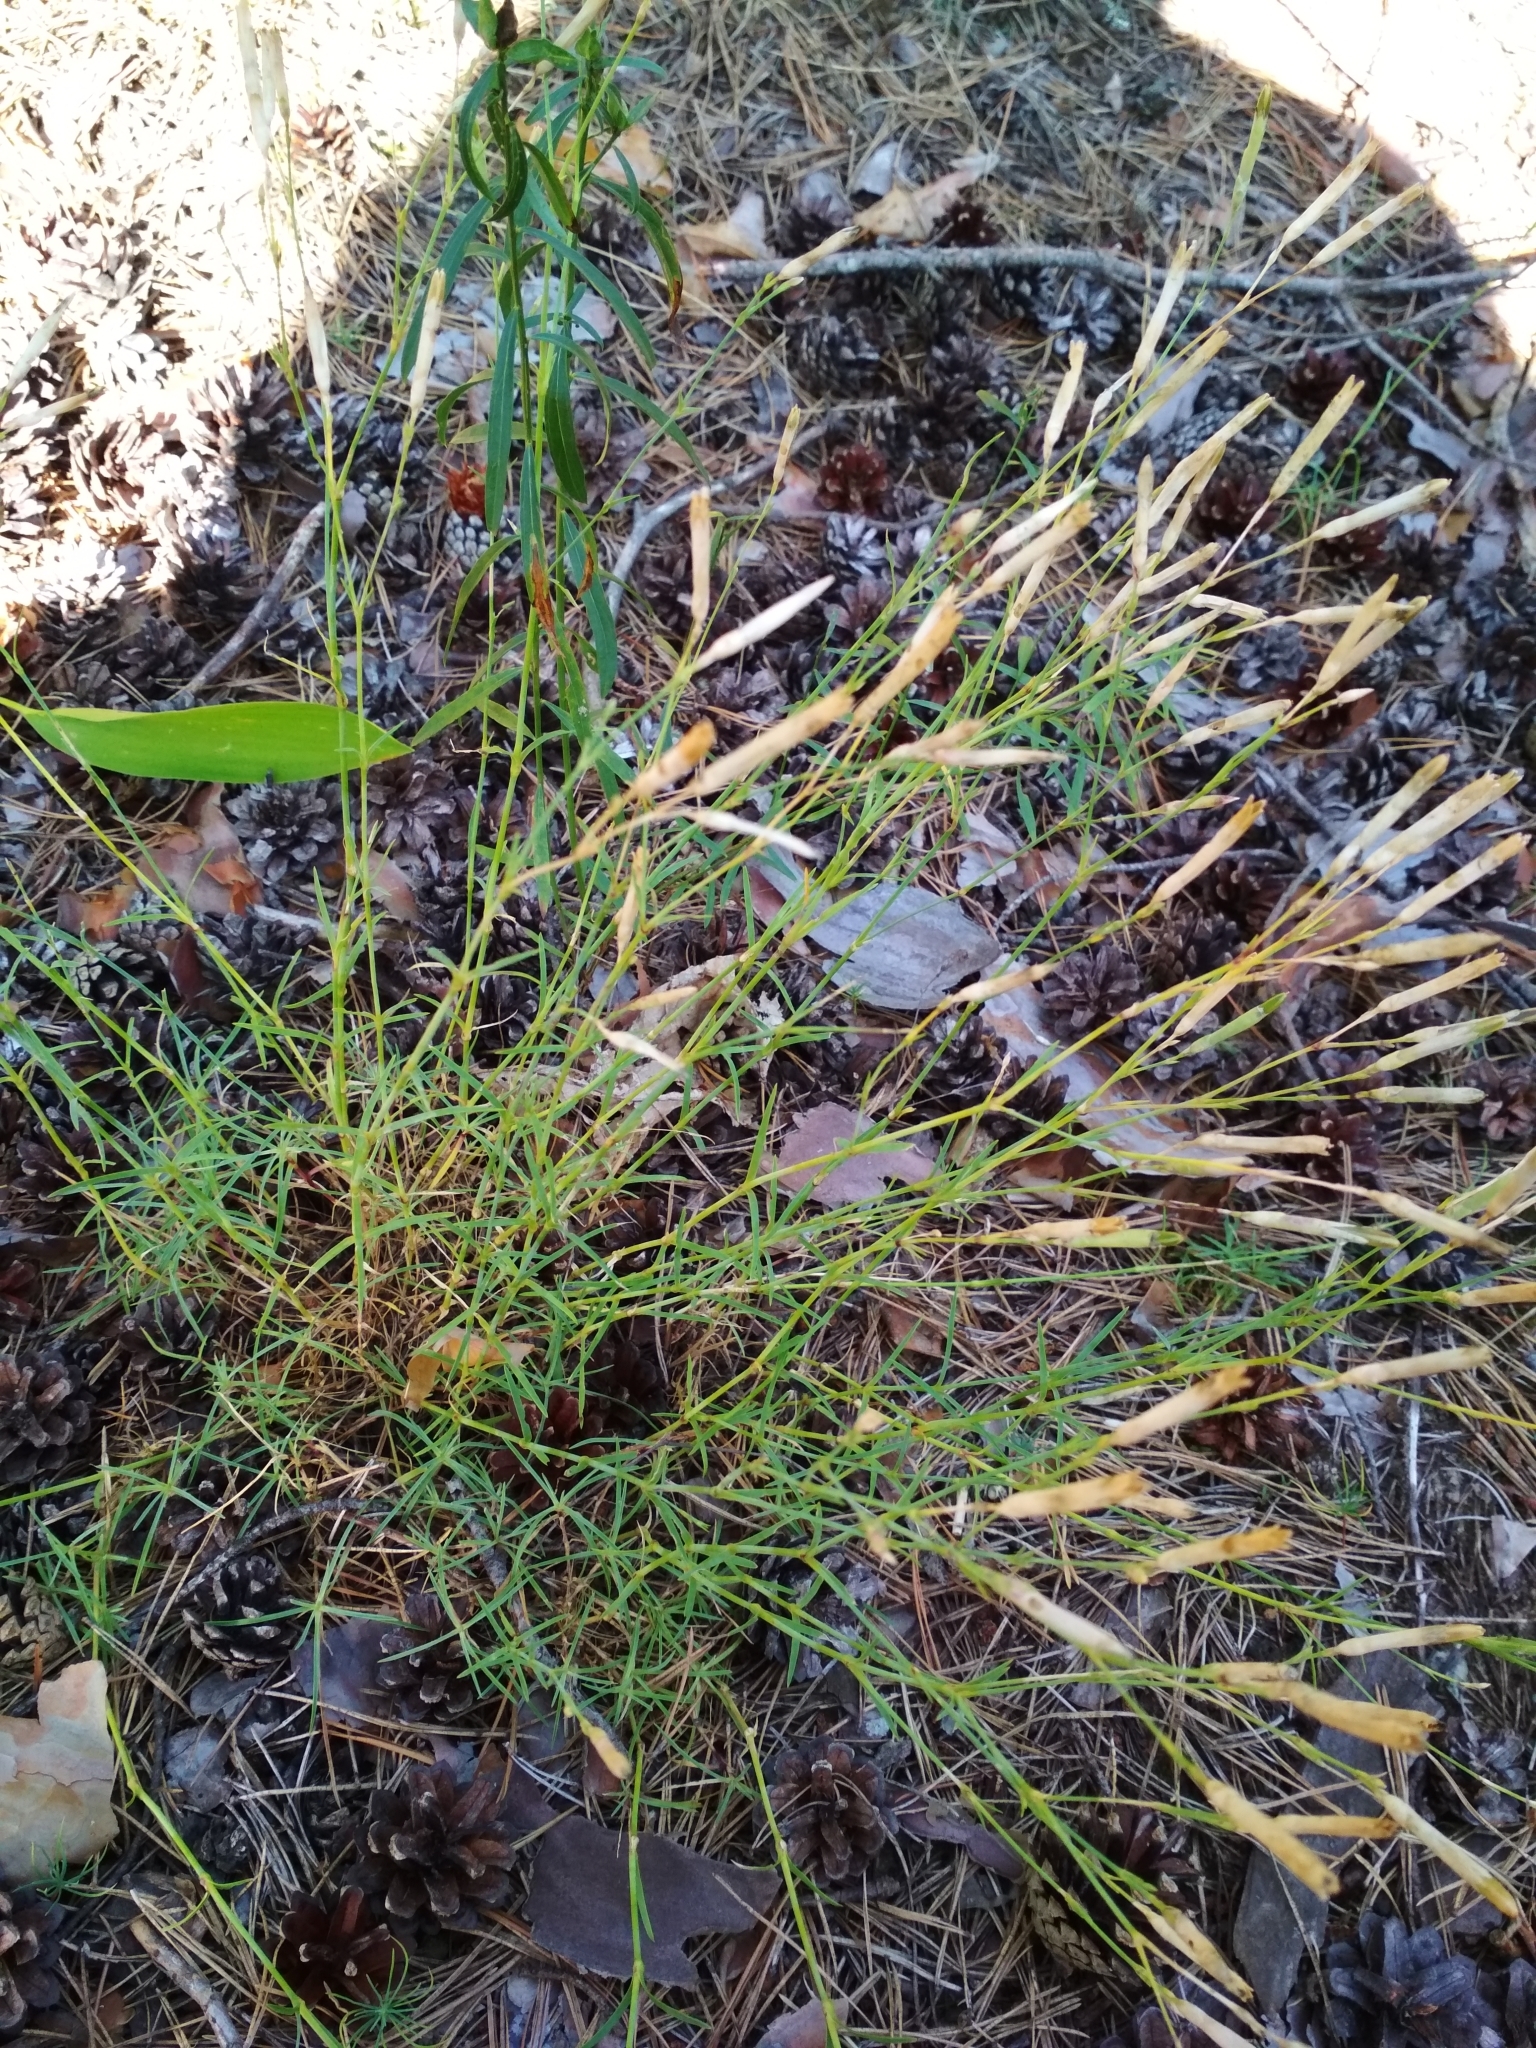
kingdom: Plantae
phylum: Tracheophyta
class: Magnoliopsida
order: Caryophyllales
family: Caryophyllaceae
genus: Dianthus
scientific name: Dianthus arenarius
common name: Stone pink
